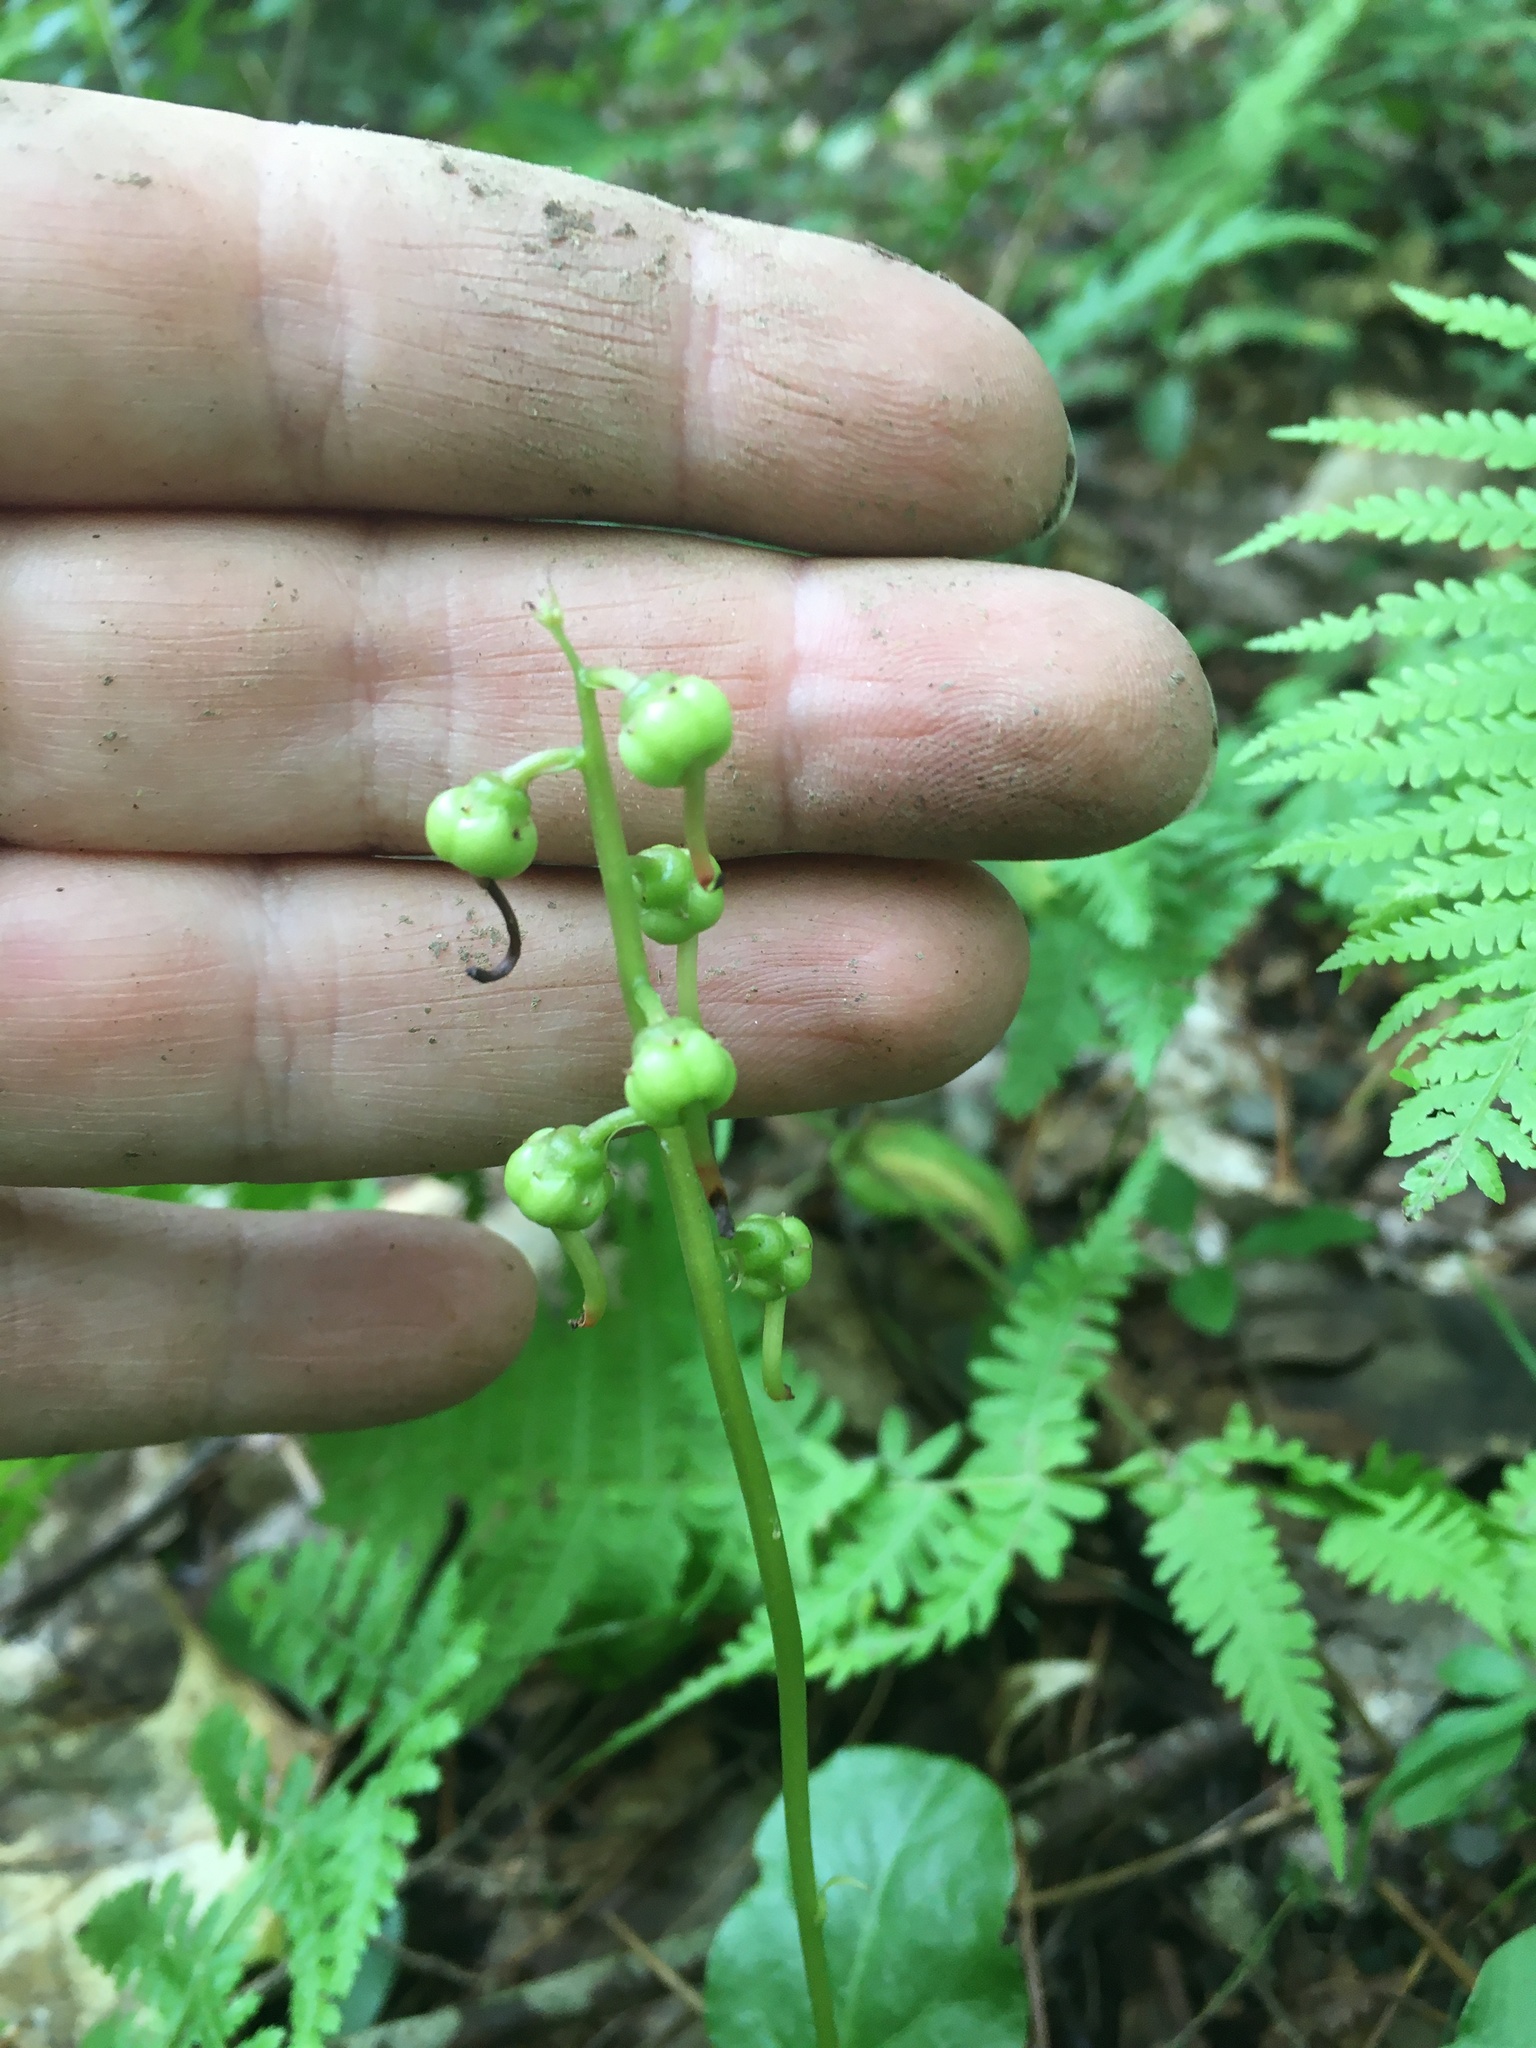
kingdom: Plantae
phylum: Tracheophyta
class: Magnoliopsida
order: Ericales
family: Ericaceae
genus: Pyrola
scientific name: Pyrola elliptica
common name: Shinleaf
